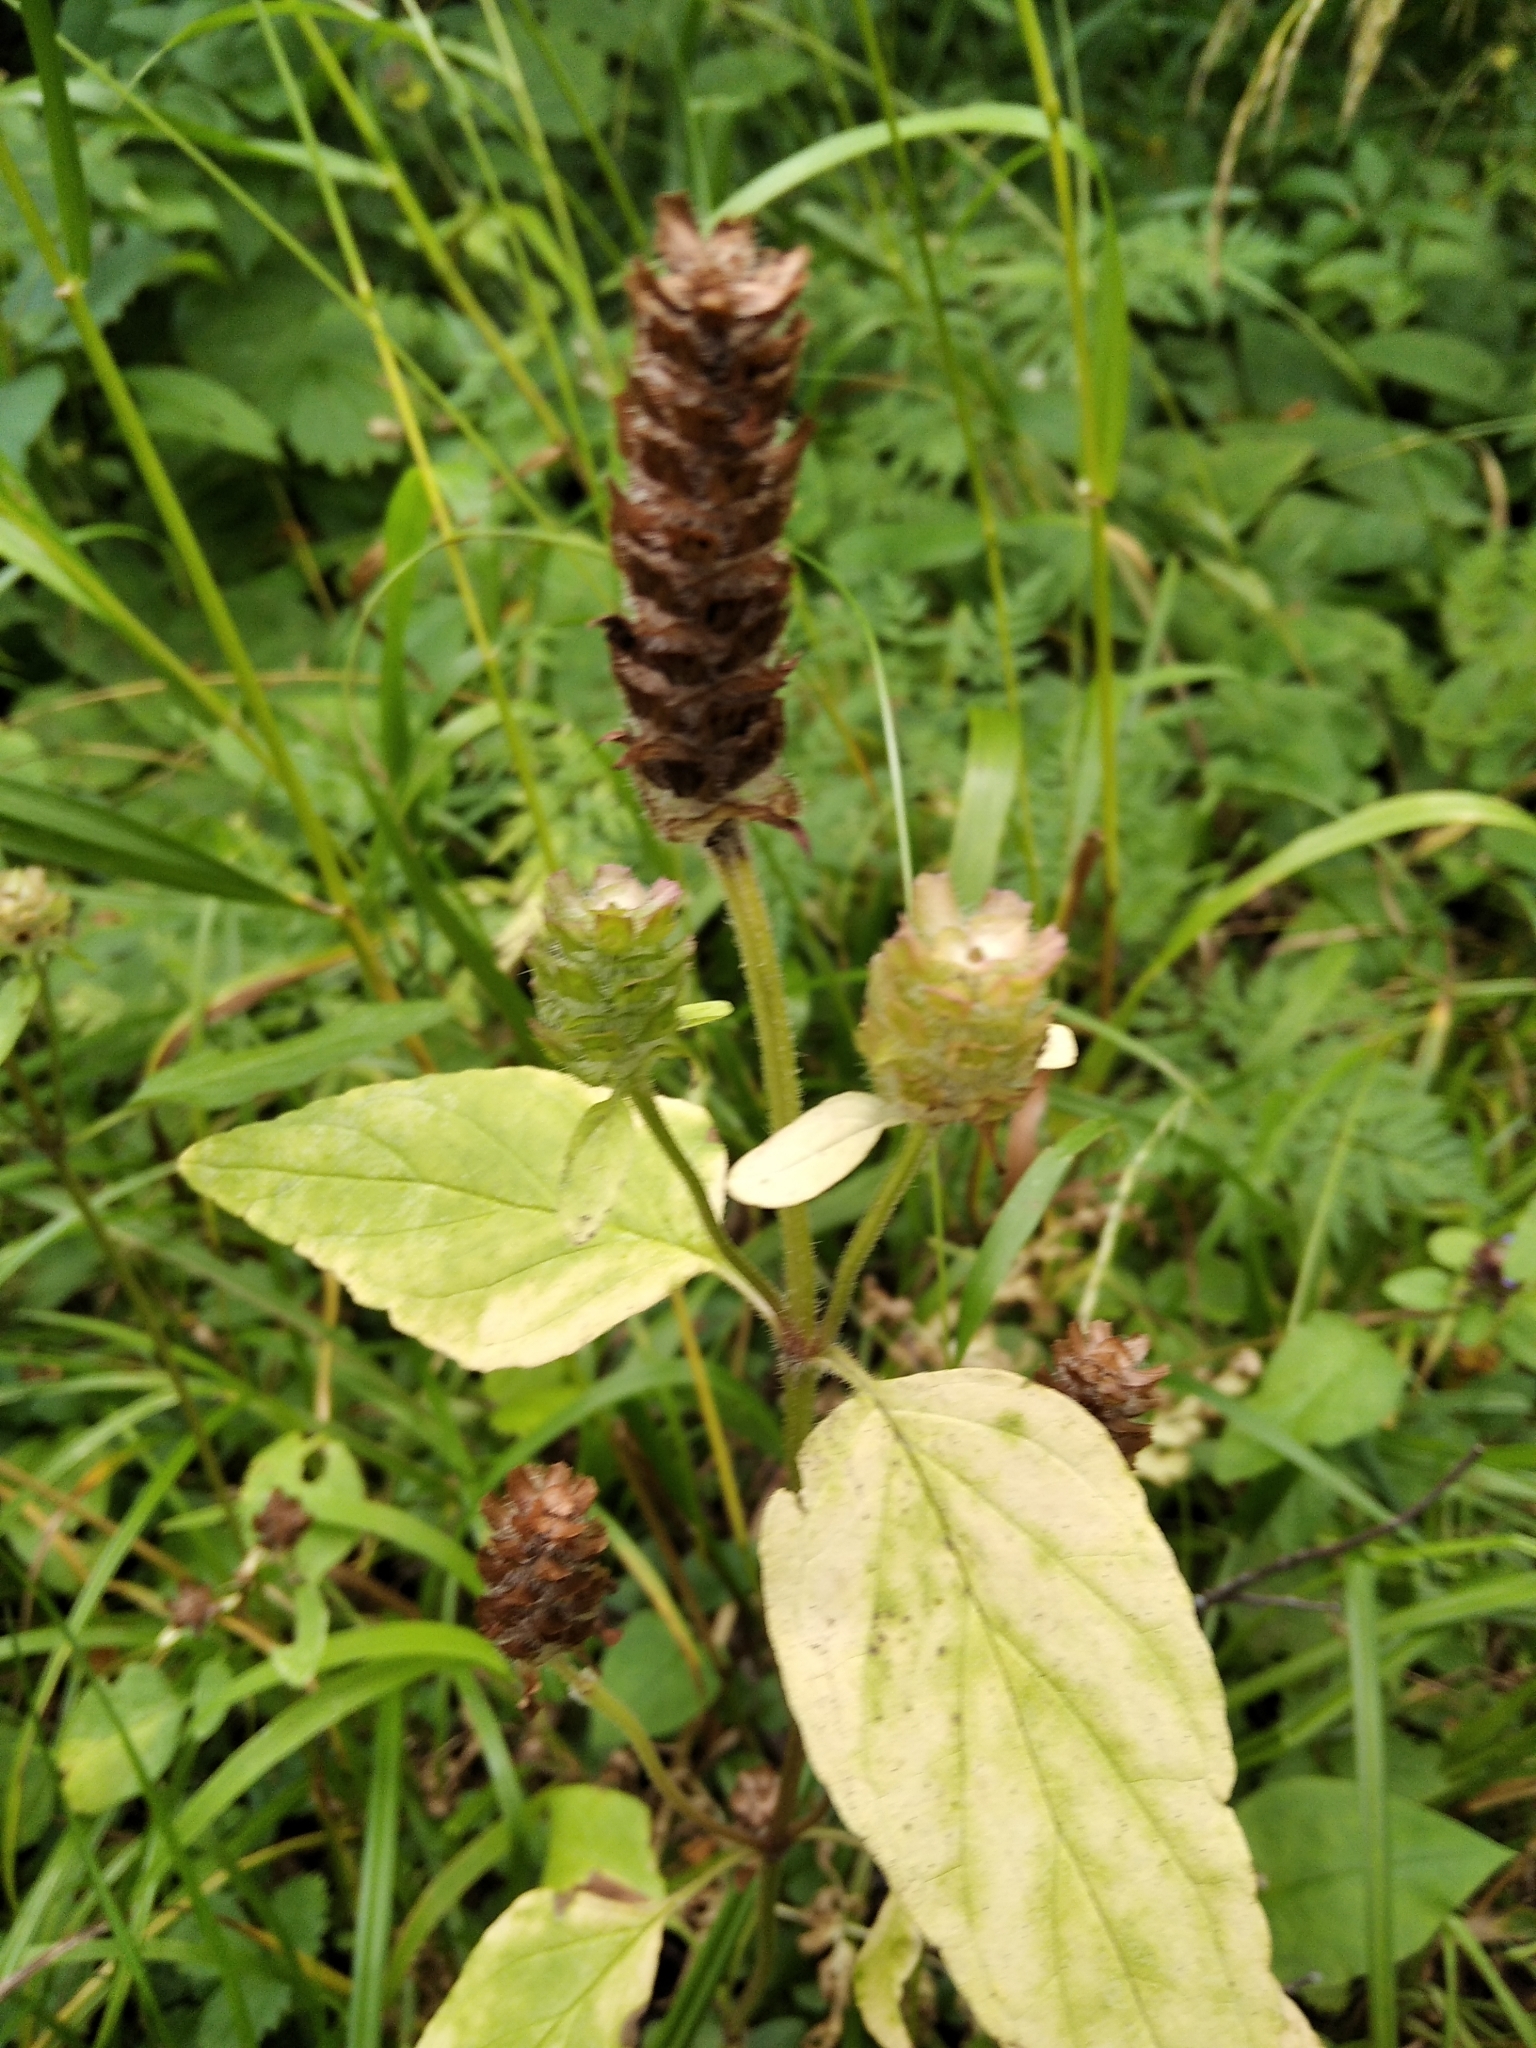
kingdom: Plantae
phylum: Tracheophyta
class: Magnoliopsida
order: Lamiales
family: Lamiaceae
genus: Prunella
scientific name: Prunella vulgaris
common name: Heal-all
